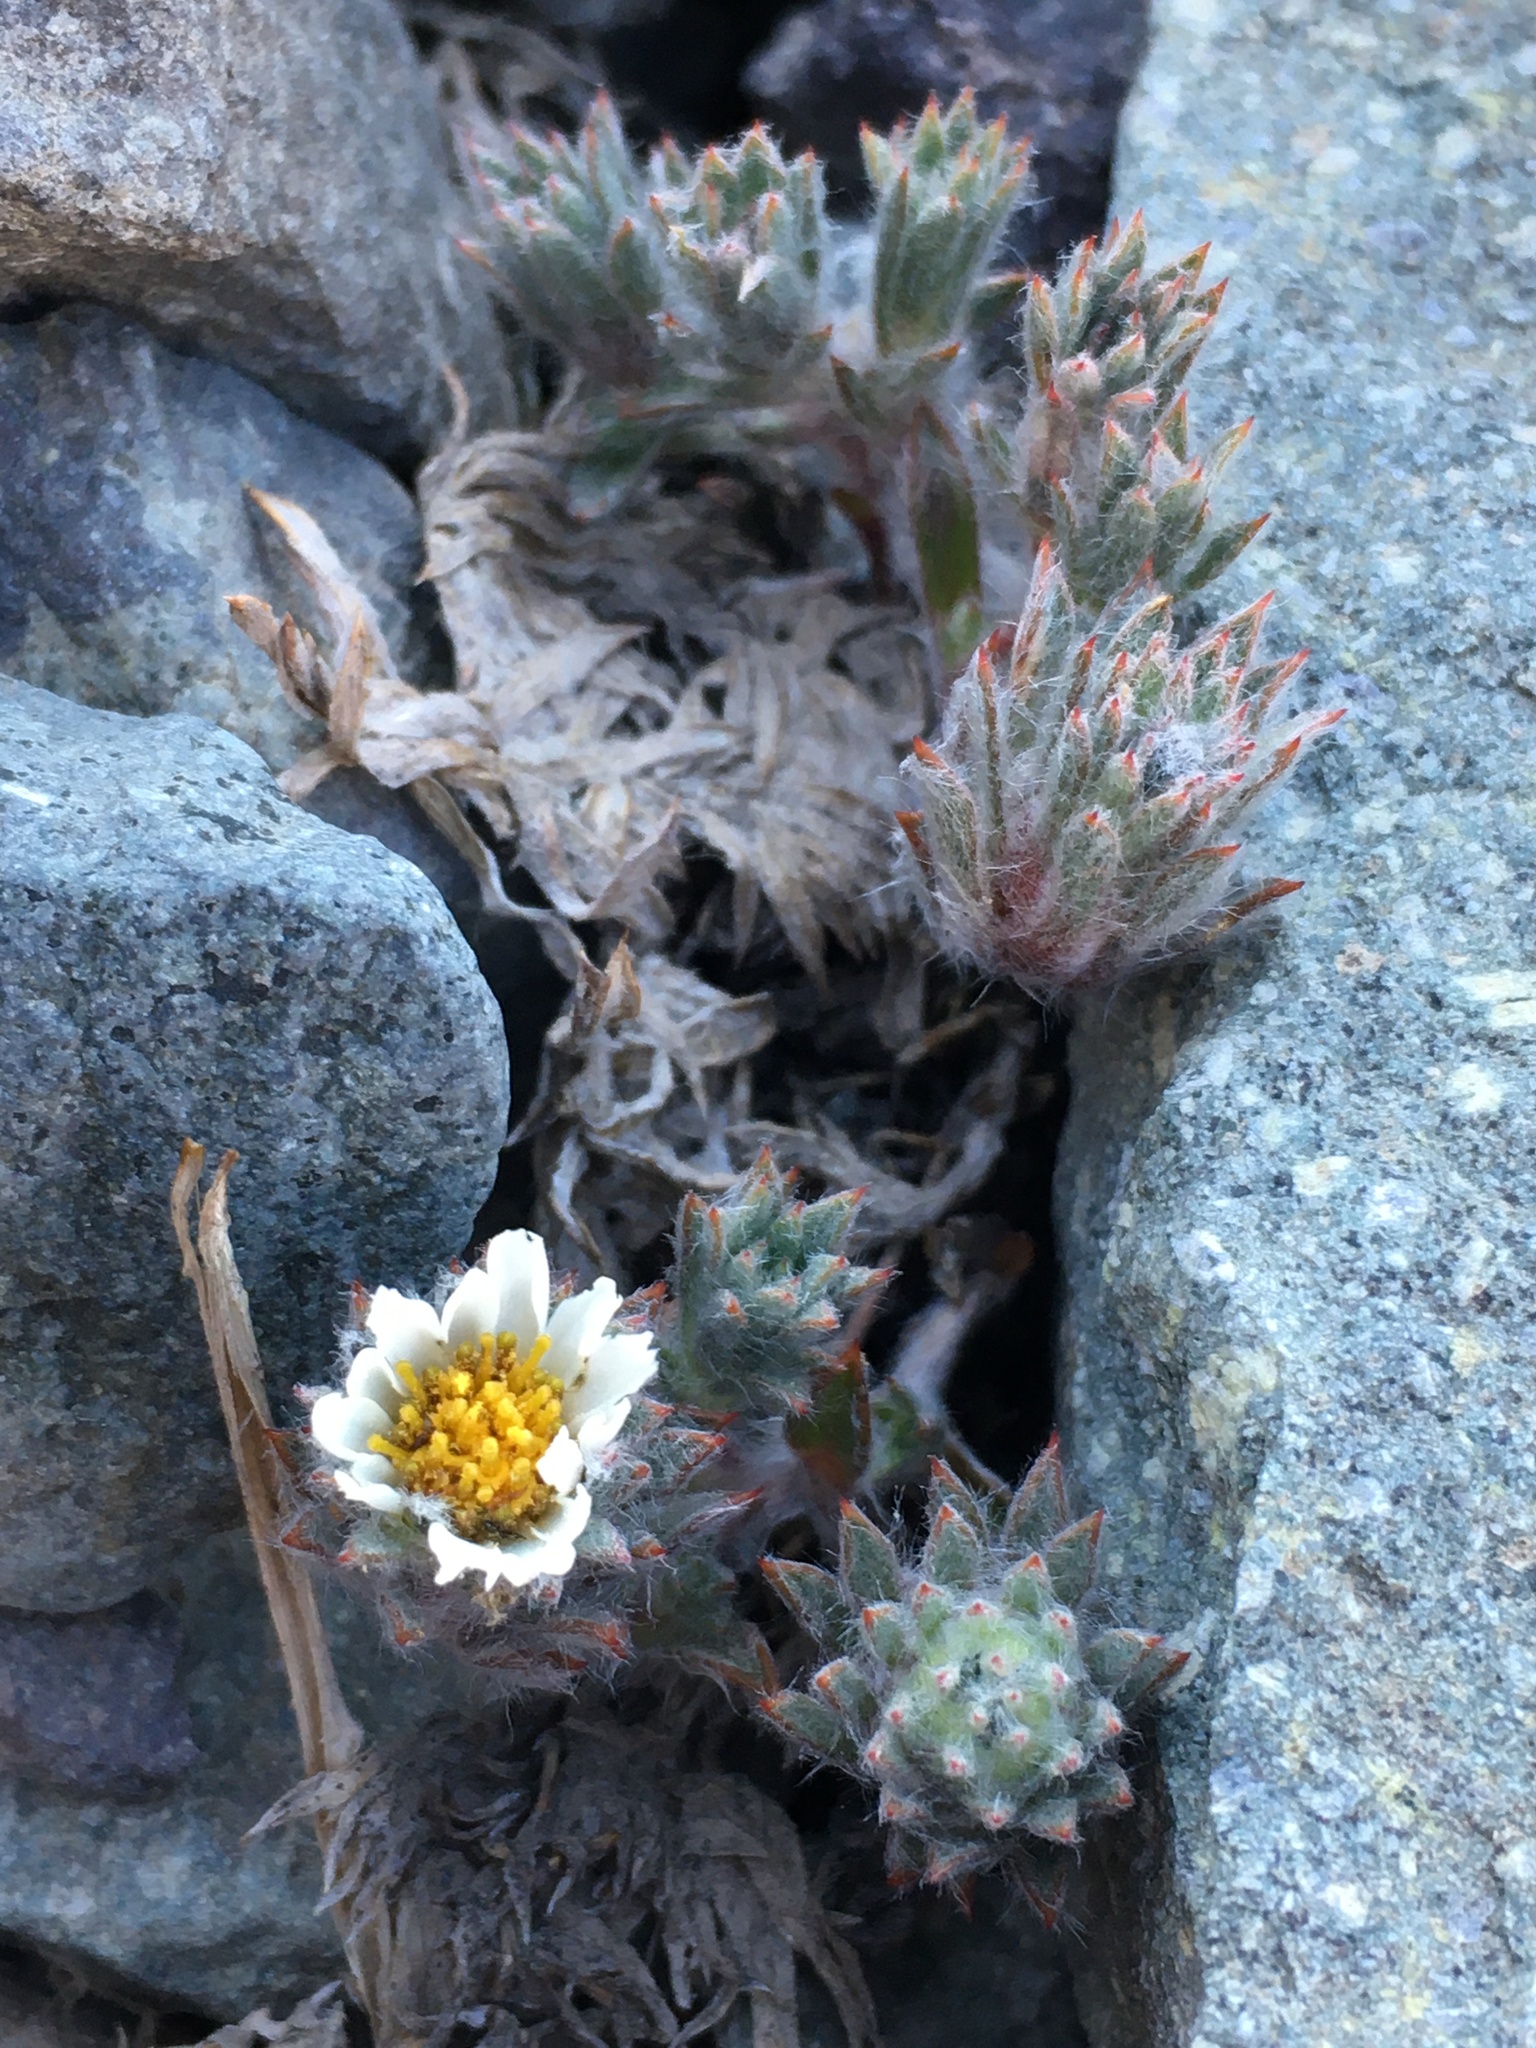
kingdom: Plantae
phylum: Tracheophyta
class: Magnoliopsida
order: Asterales
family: Asteraceae
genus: Oriastrum
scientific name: Oriastrum apiculatum
